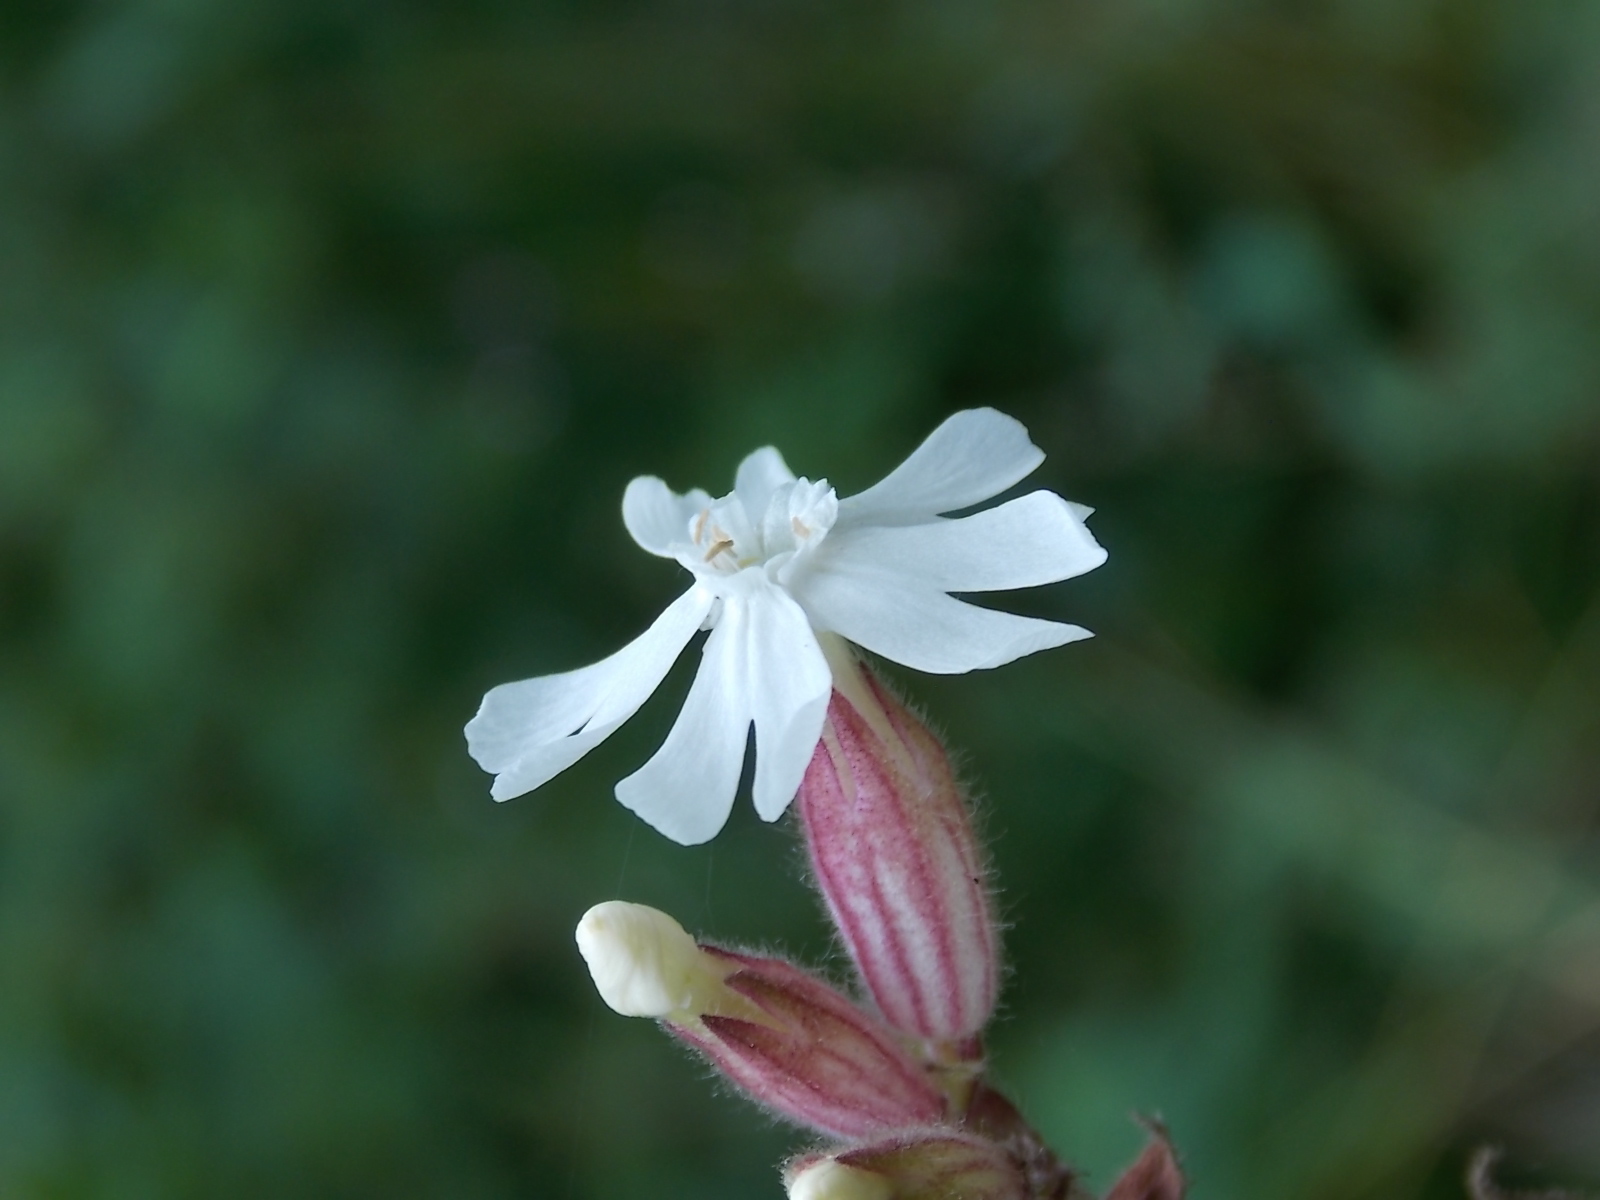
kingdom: Plantae
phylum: Tracheophyta
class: Magnoliopsida
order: Caryophyllales
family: Caryophyllaceae
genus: Silene
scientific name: Silene latifolia
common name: White campion
